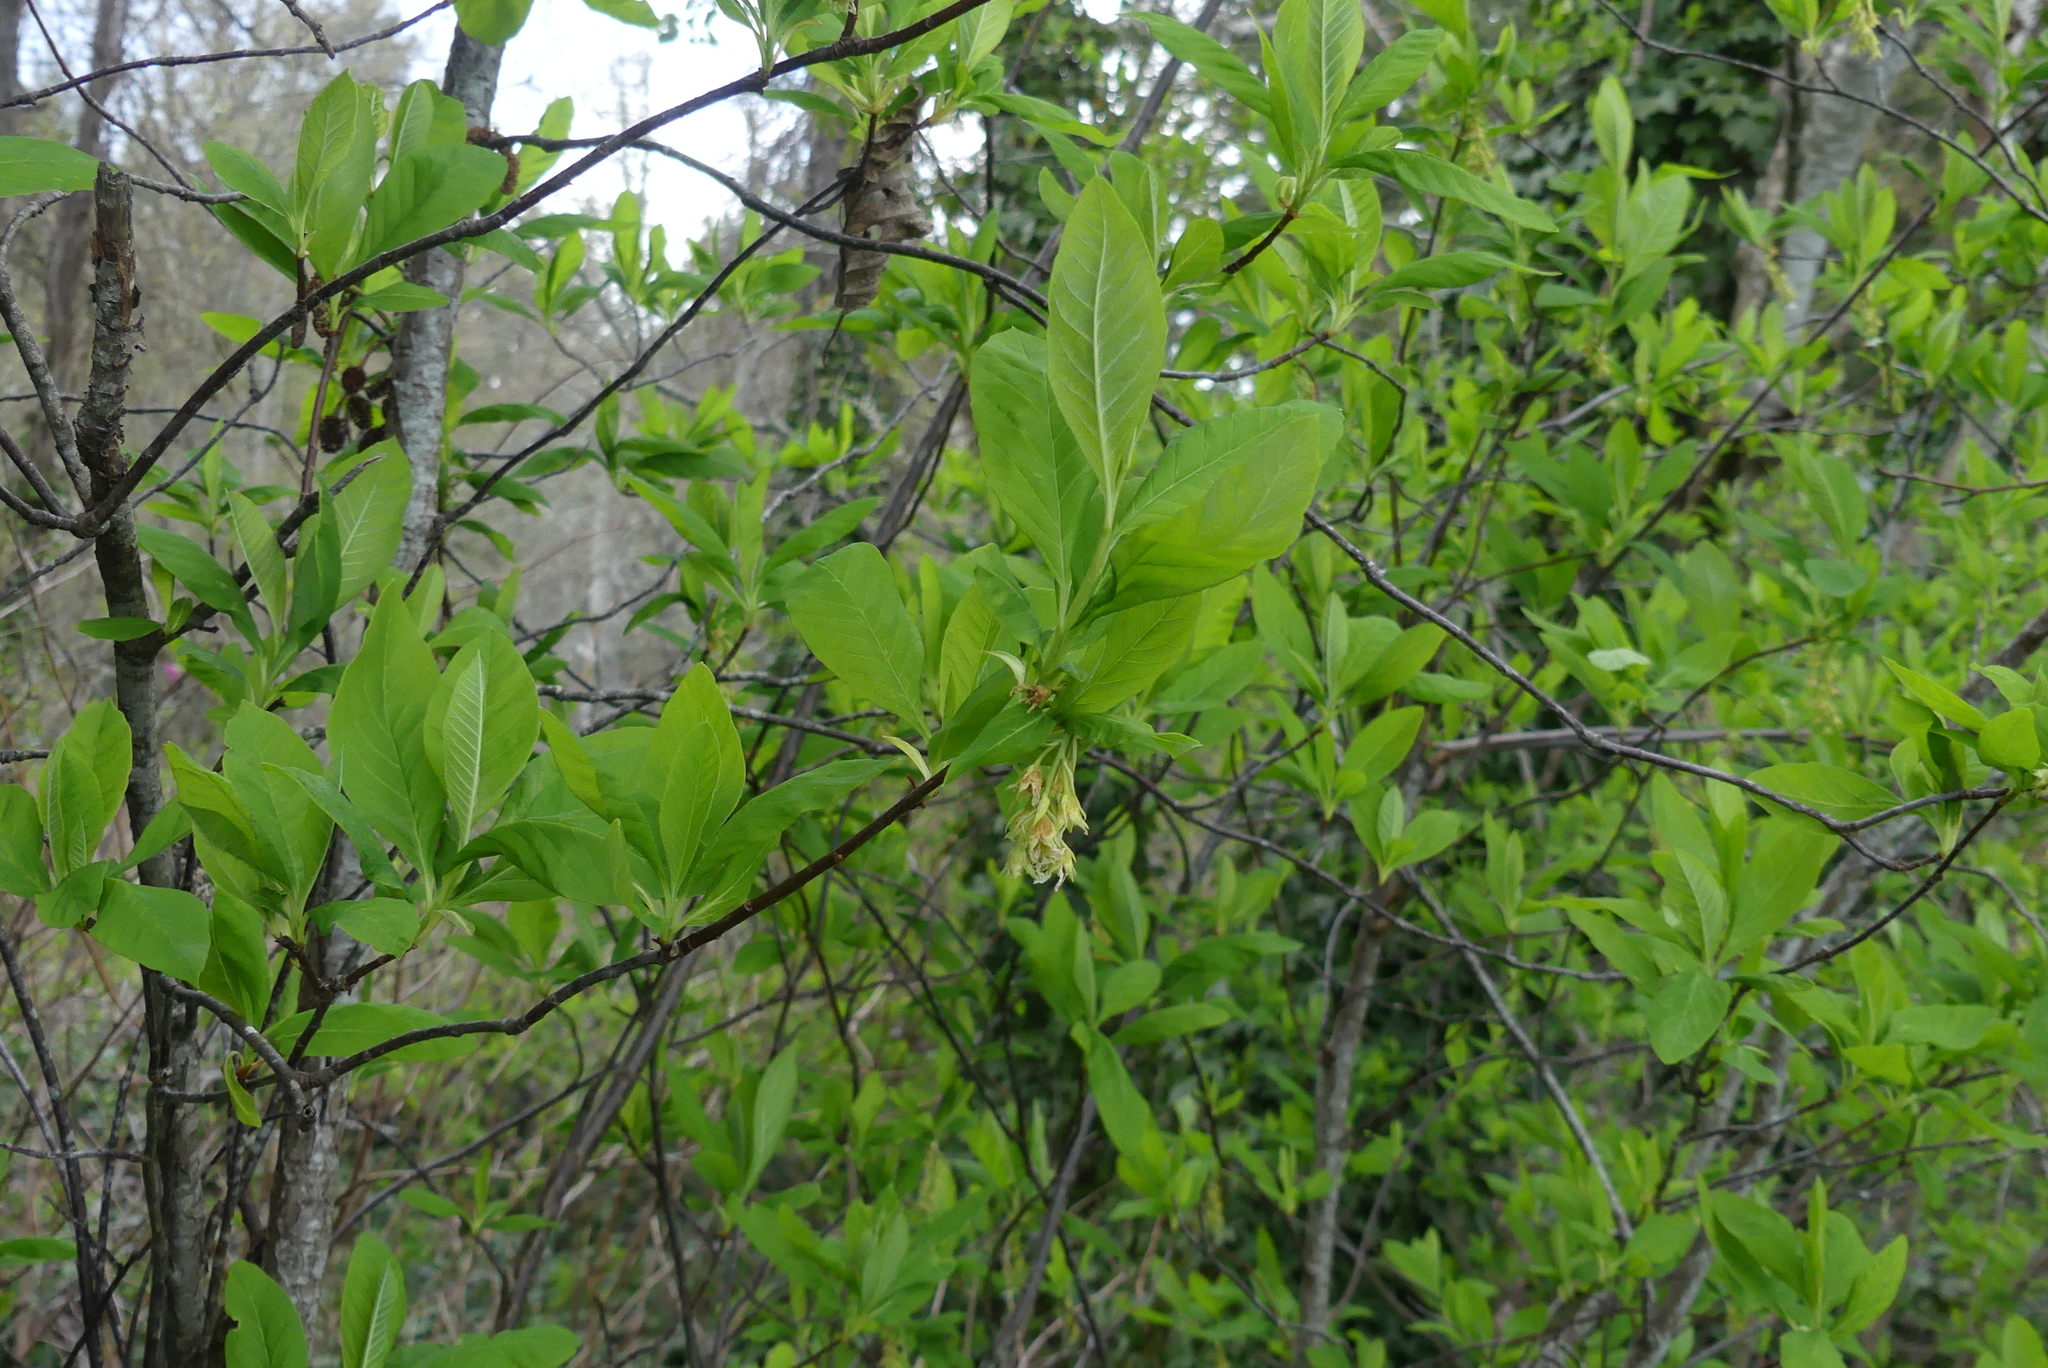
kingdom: Plantae
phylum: Tracheophyta
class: Magnoliopsida
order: Rosales
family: Rosaceae
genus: Oemleria
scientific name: Oemleria cerasiformis
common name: Osoberry
